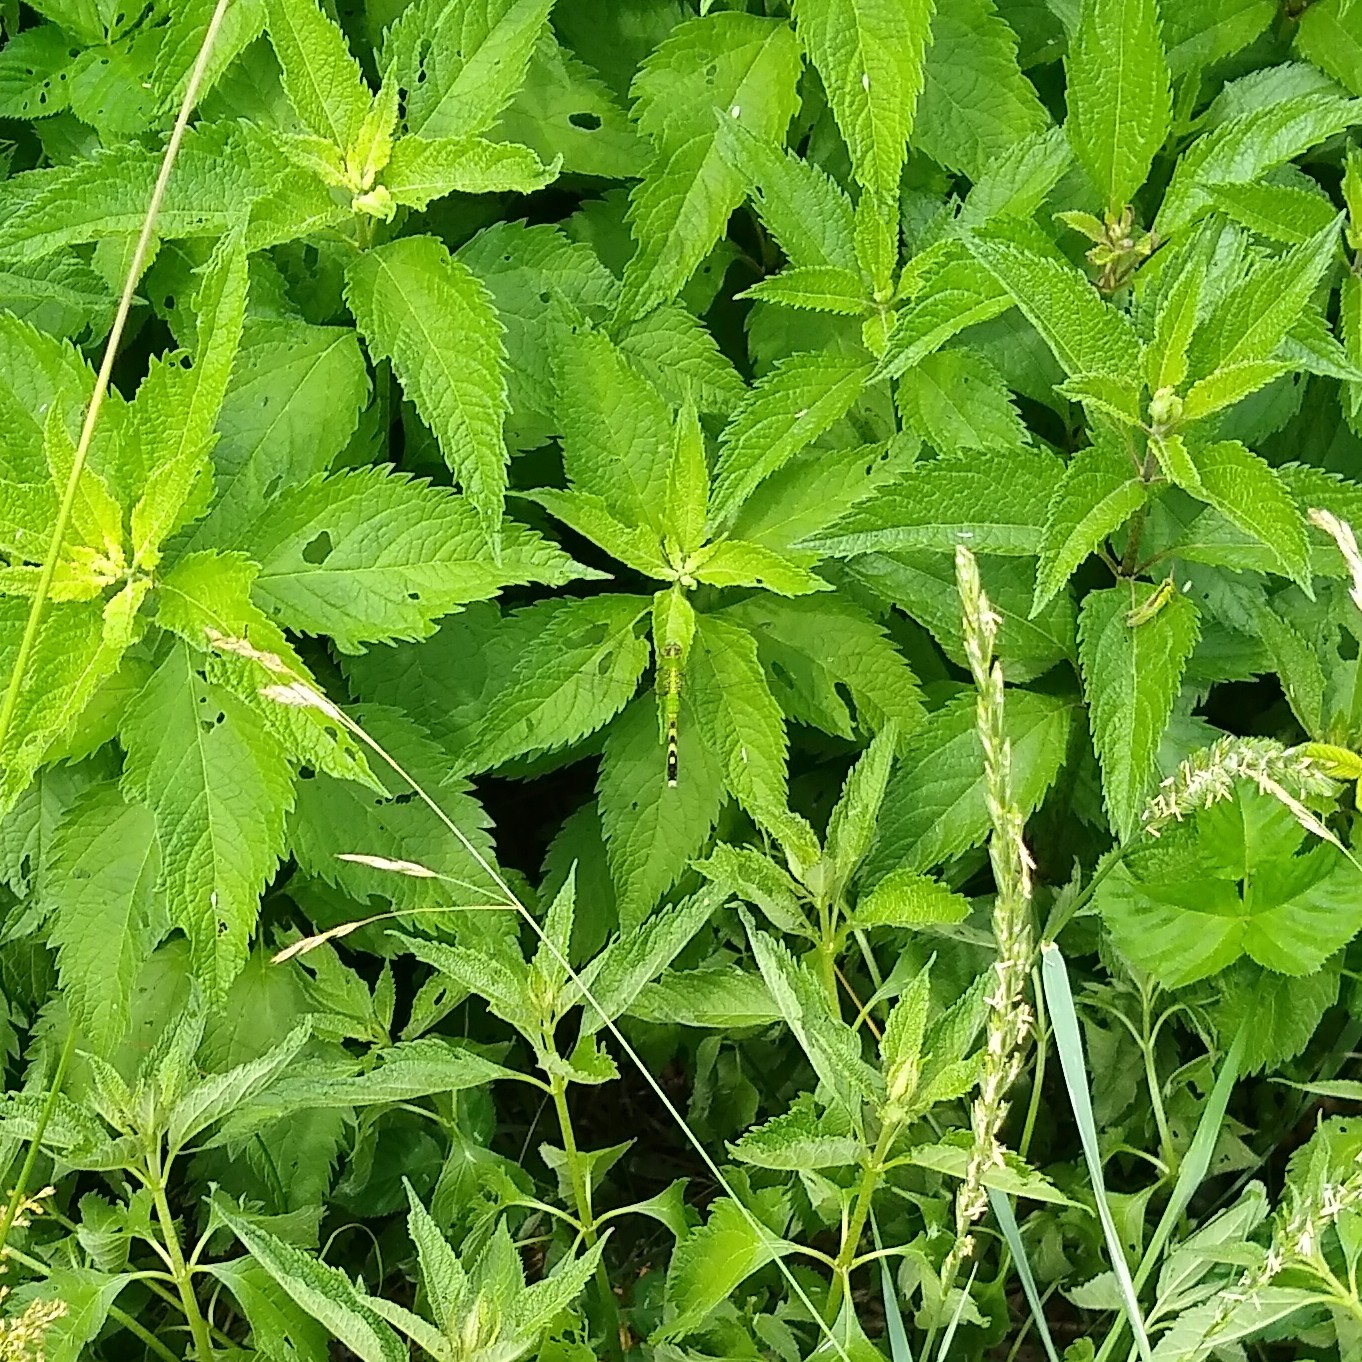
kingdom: Animalia
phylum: Arthropoda
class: Insecta
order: Odonata
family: Libellulidae
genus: Erythemis
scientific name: Erythemis simplicicollis
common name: Eastern pondhawk
